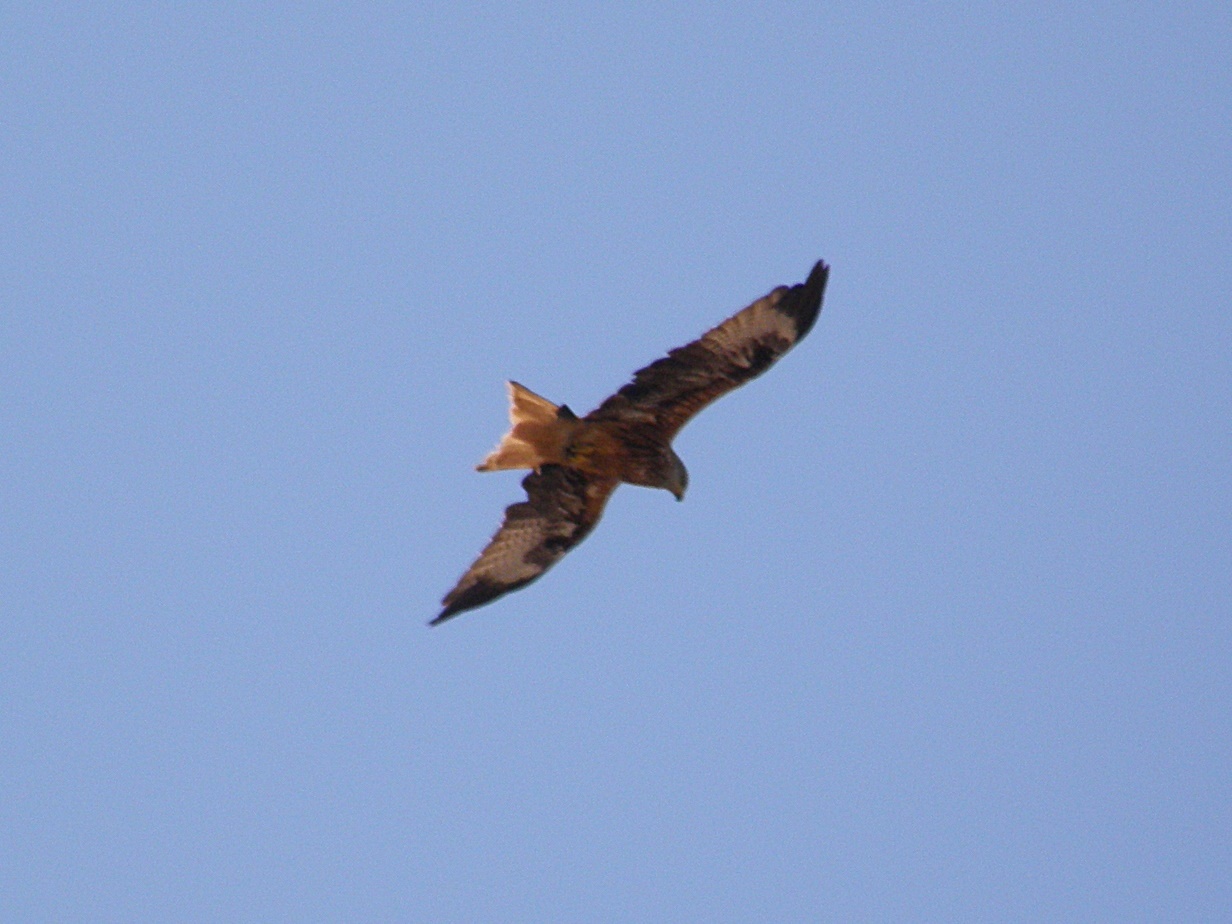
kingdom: Animalia
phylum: Chordata
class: Aves
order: Accipitriformes
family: Accipitridae
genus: Milvus
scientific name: Milvus milvus
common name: Red kite
